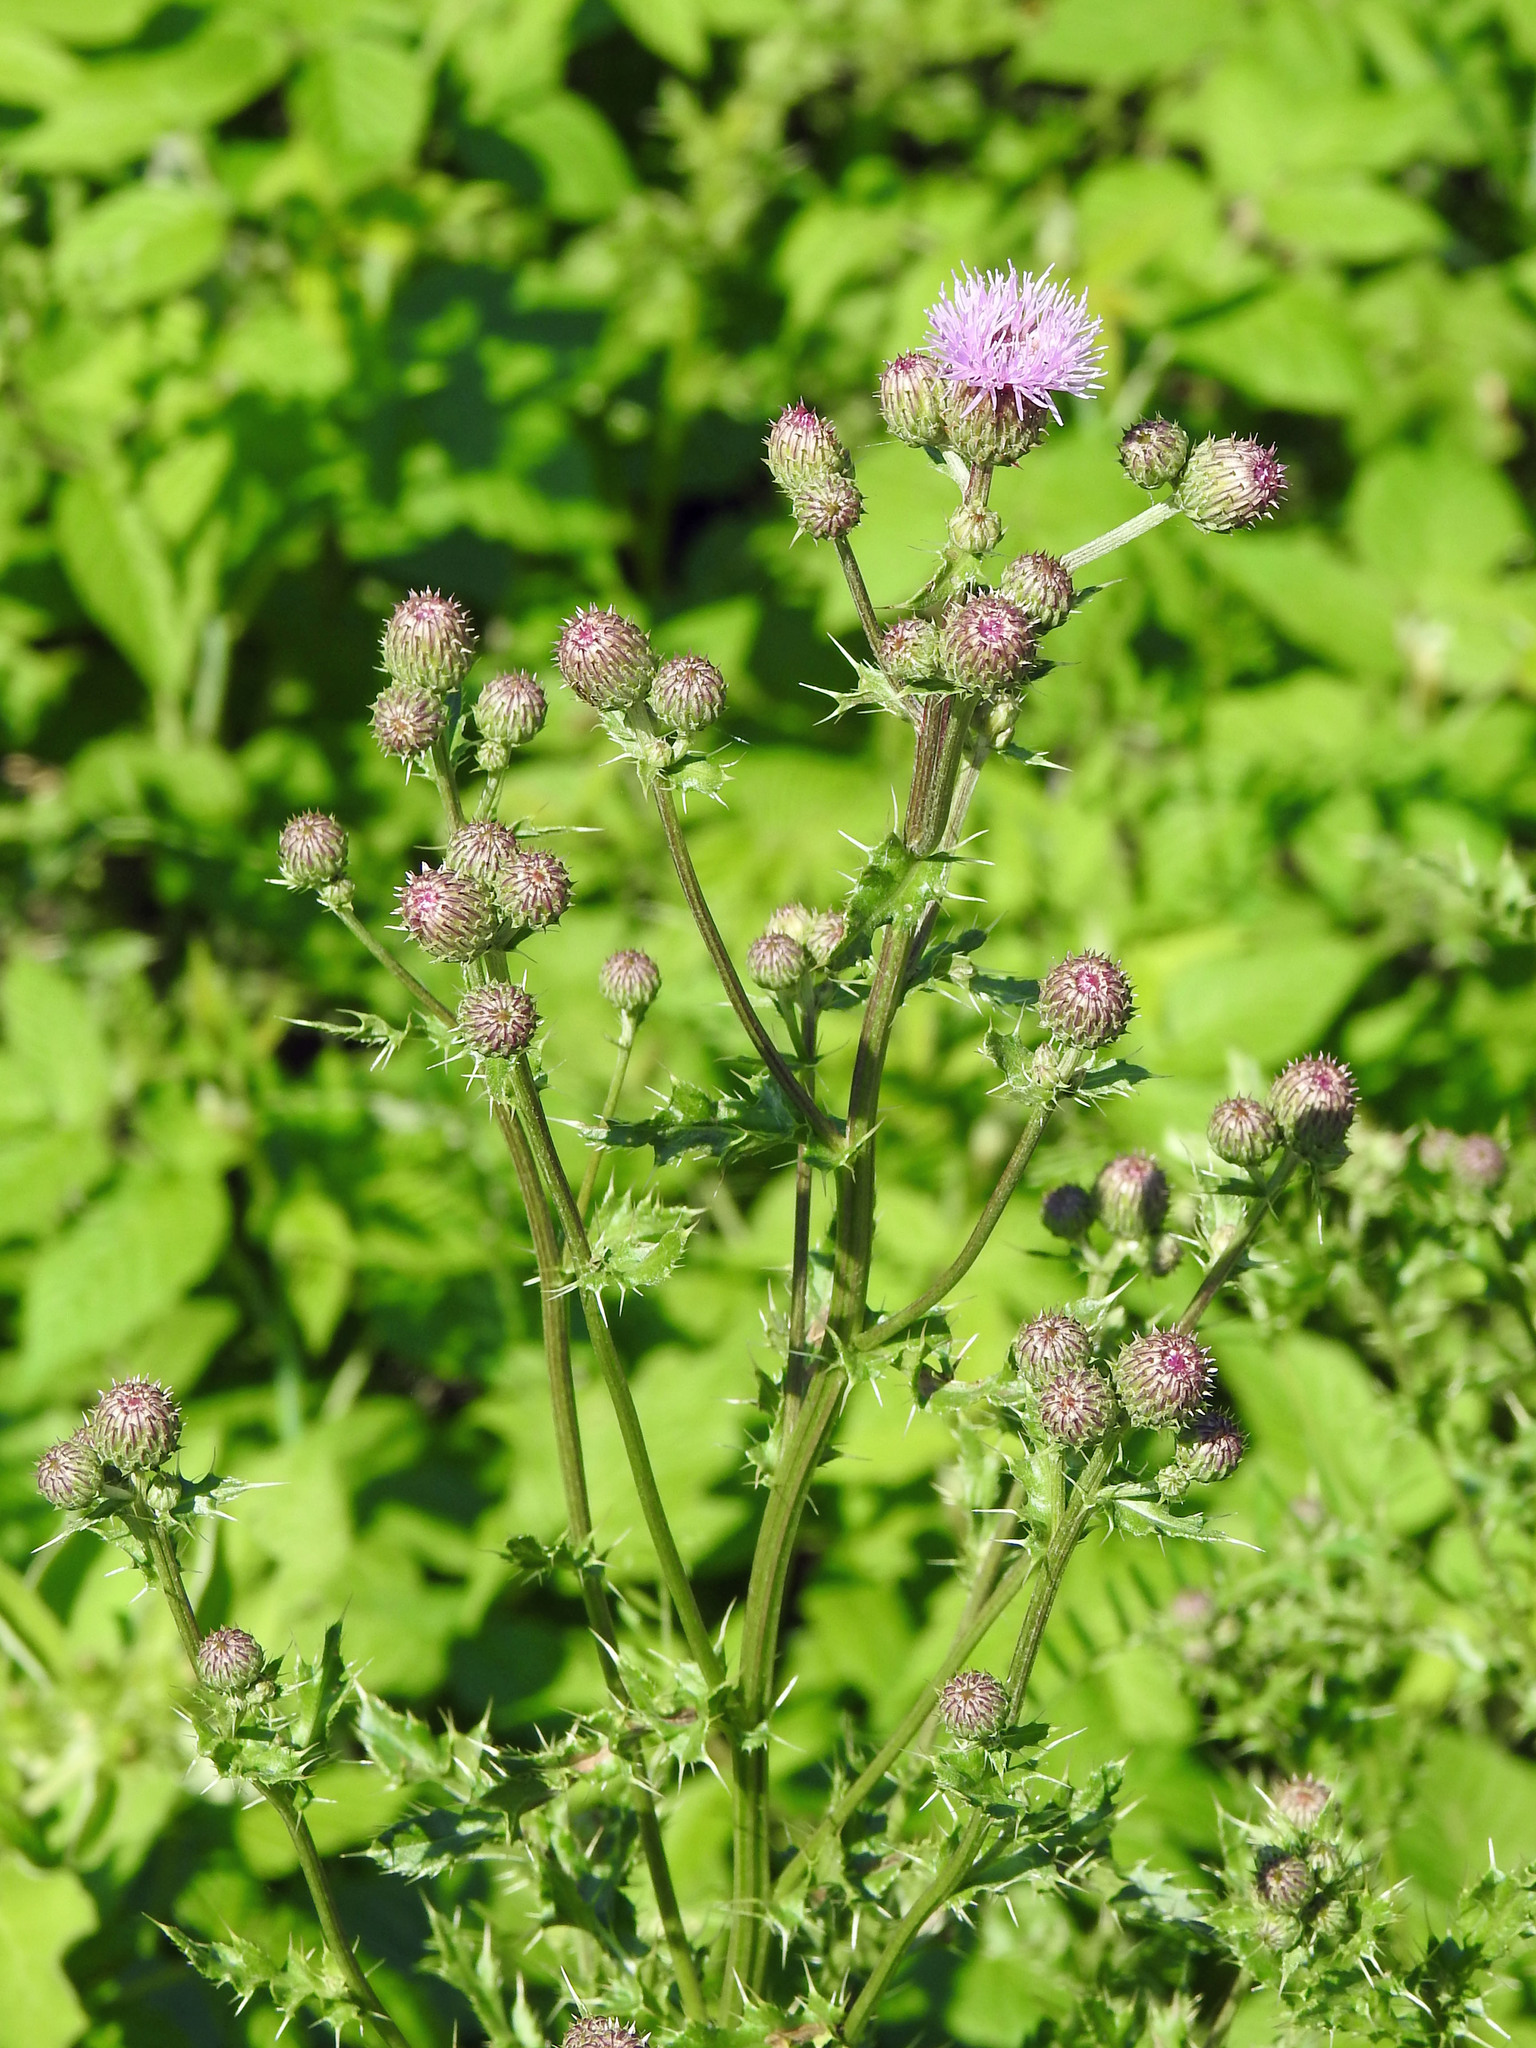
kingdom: Plantae
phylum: Tracheophyta
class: Magnoliopsida
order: Asterales
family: Asteraceae
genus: Cirsium
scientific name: Cirsium arvense
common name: Creeping thistle
